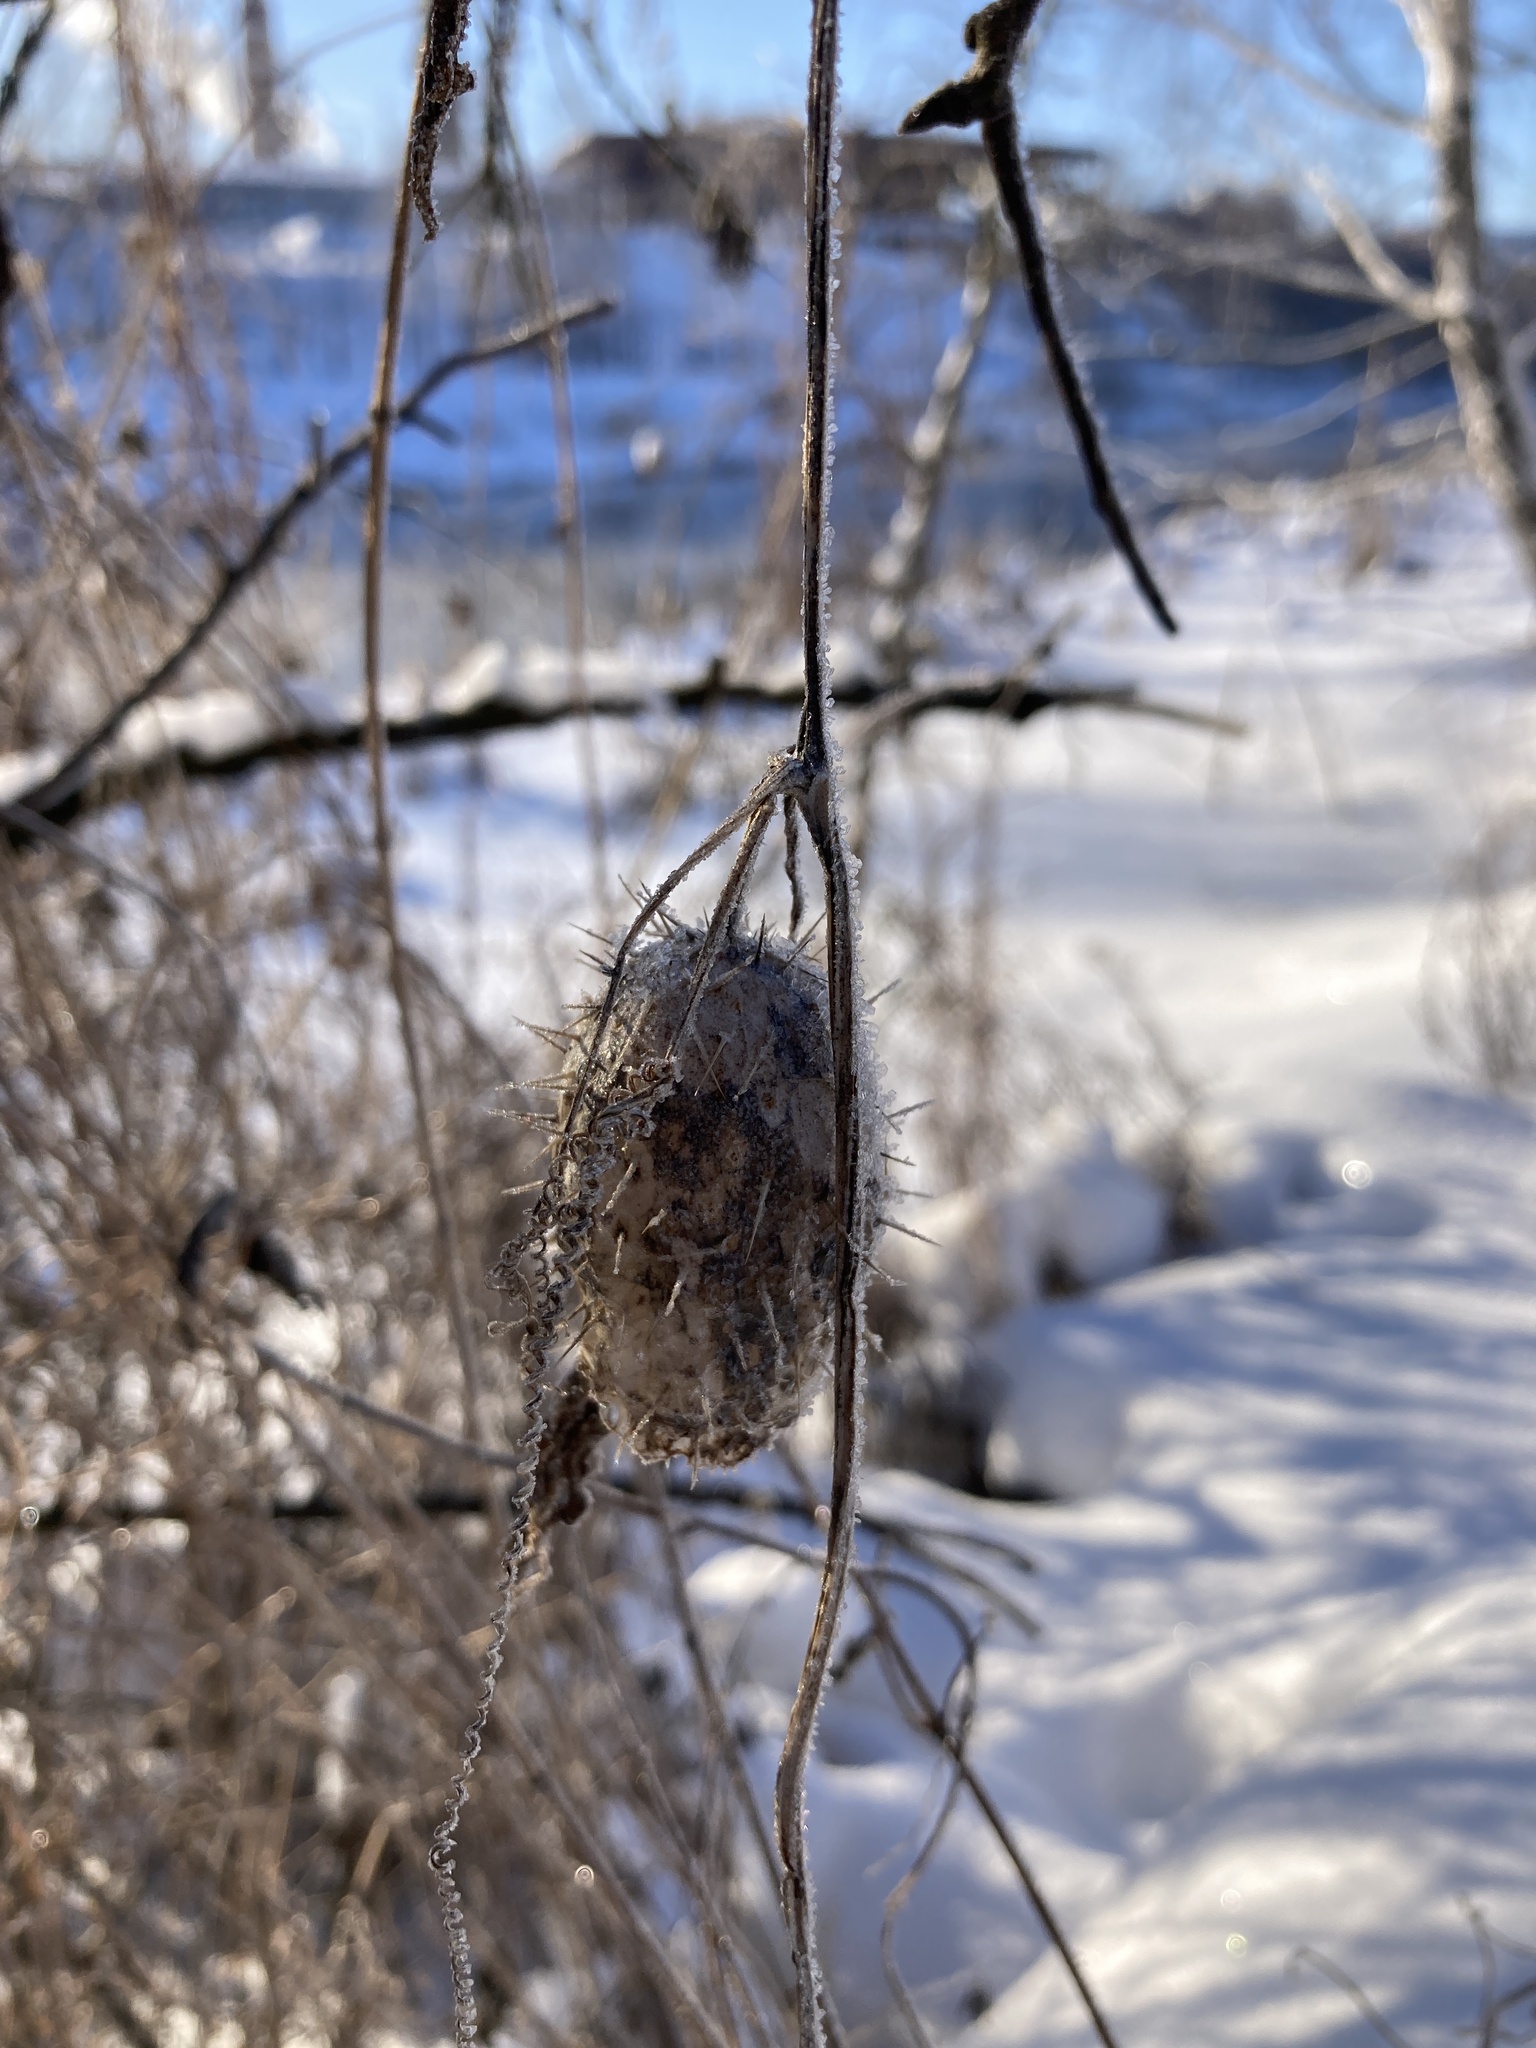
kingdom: Plantae
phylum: Tracheophyta
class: Magnoliopsida
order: Cucurbitales
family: Cucurbitaceae
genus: Echinocystis
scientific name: Echinocystis lobata
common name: Wild cucumber
